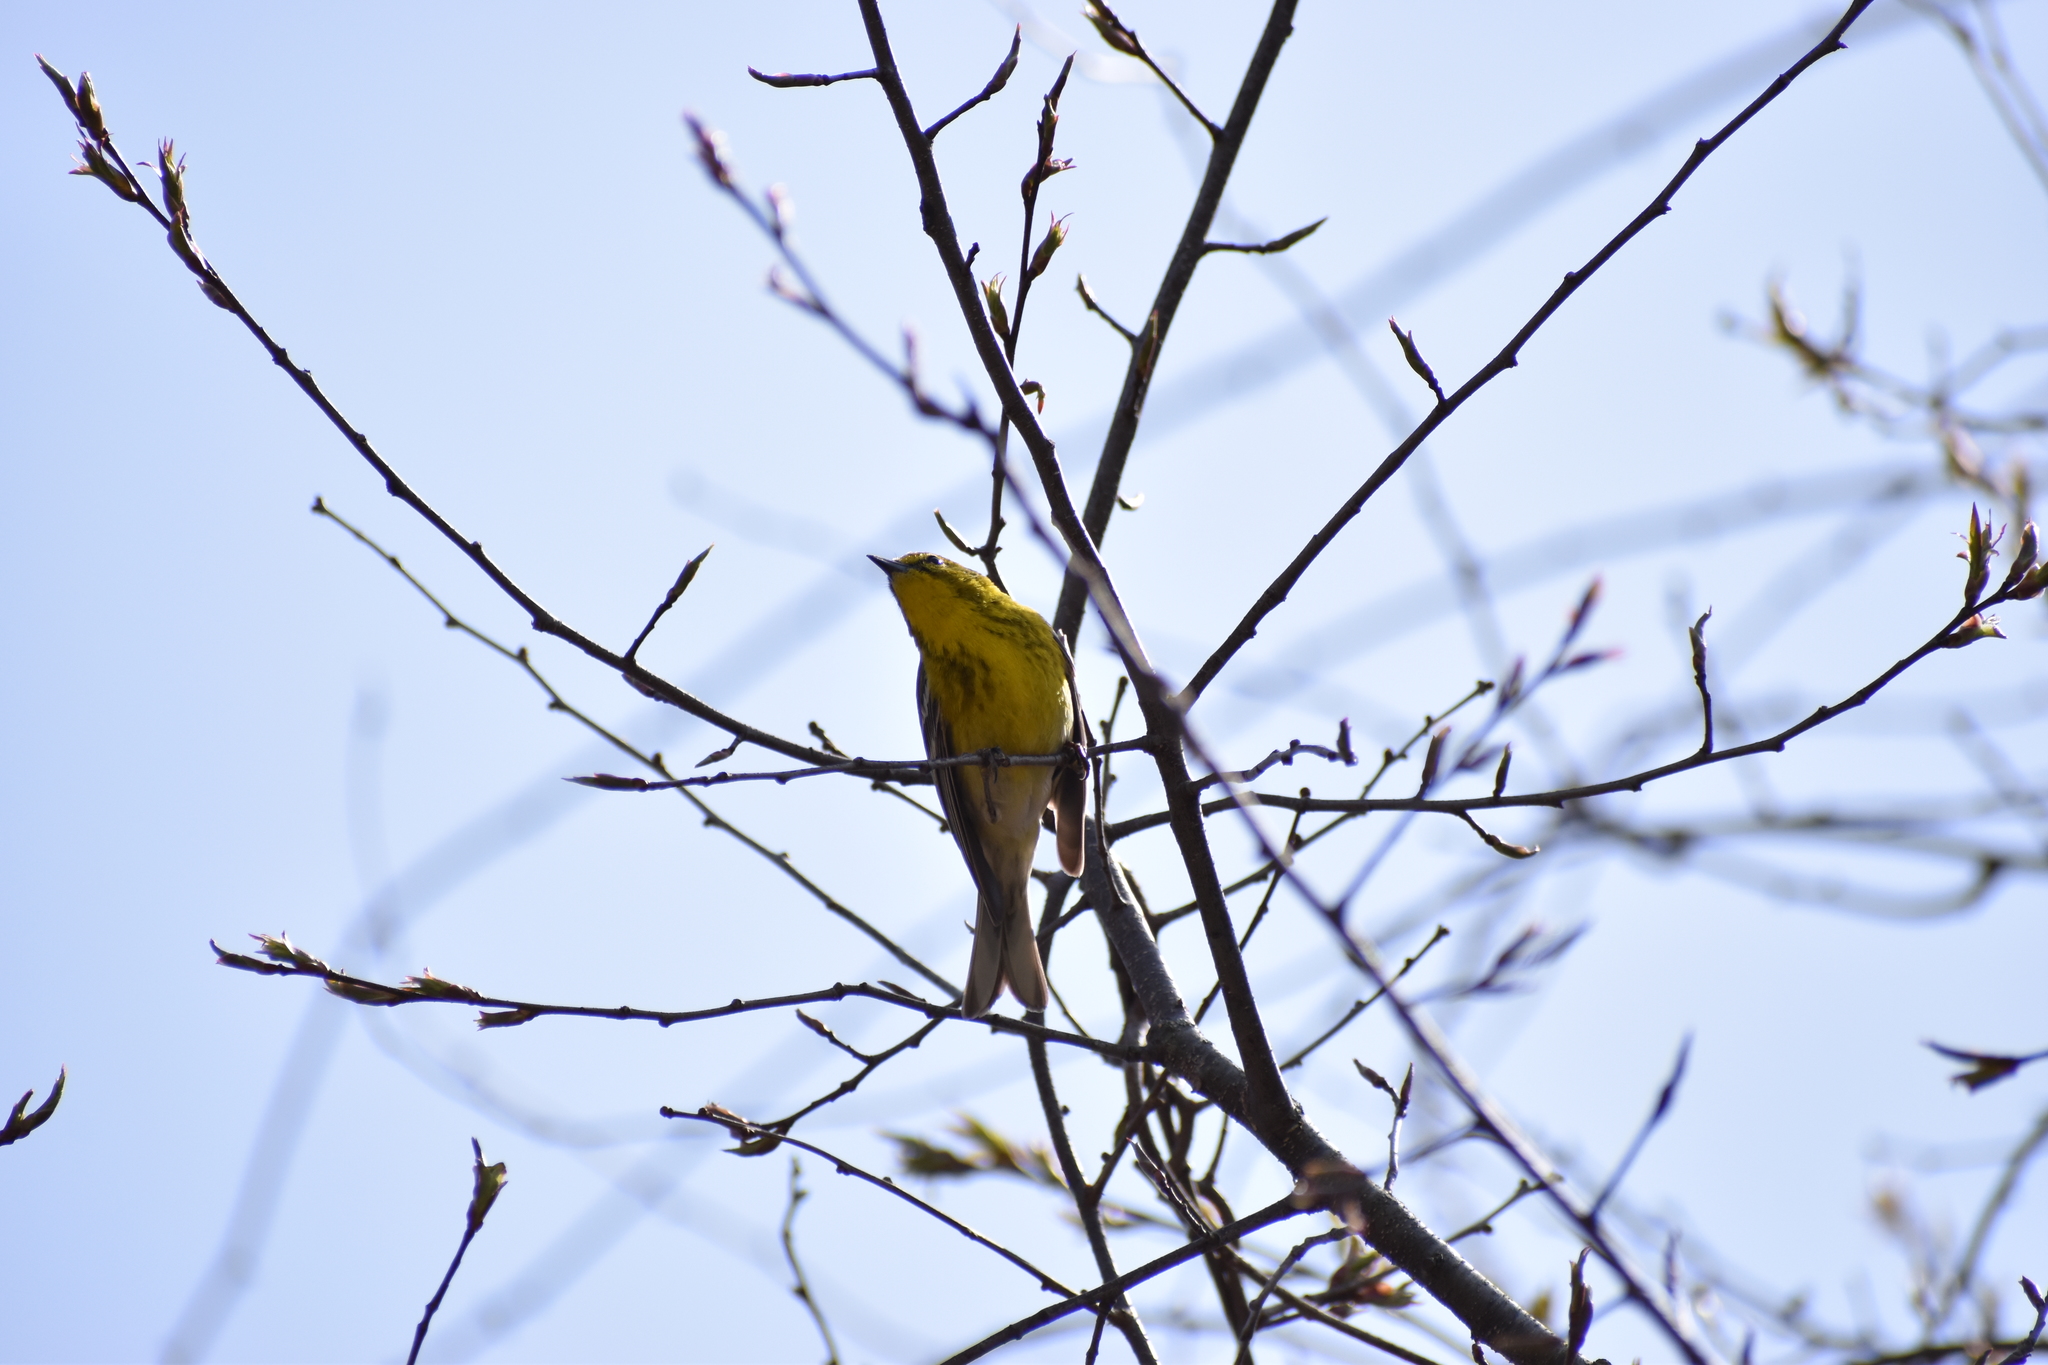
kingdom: Animalia
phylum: Chordata
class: Aves
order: Passeriformes
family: Parulidae
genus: Setophaga
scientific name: Setophaga pinus
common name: Pine warbler
